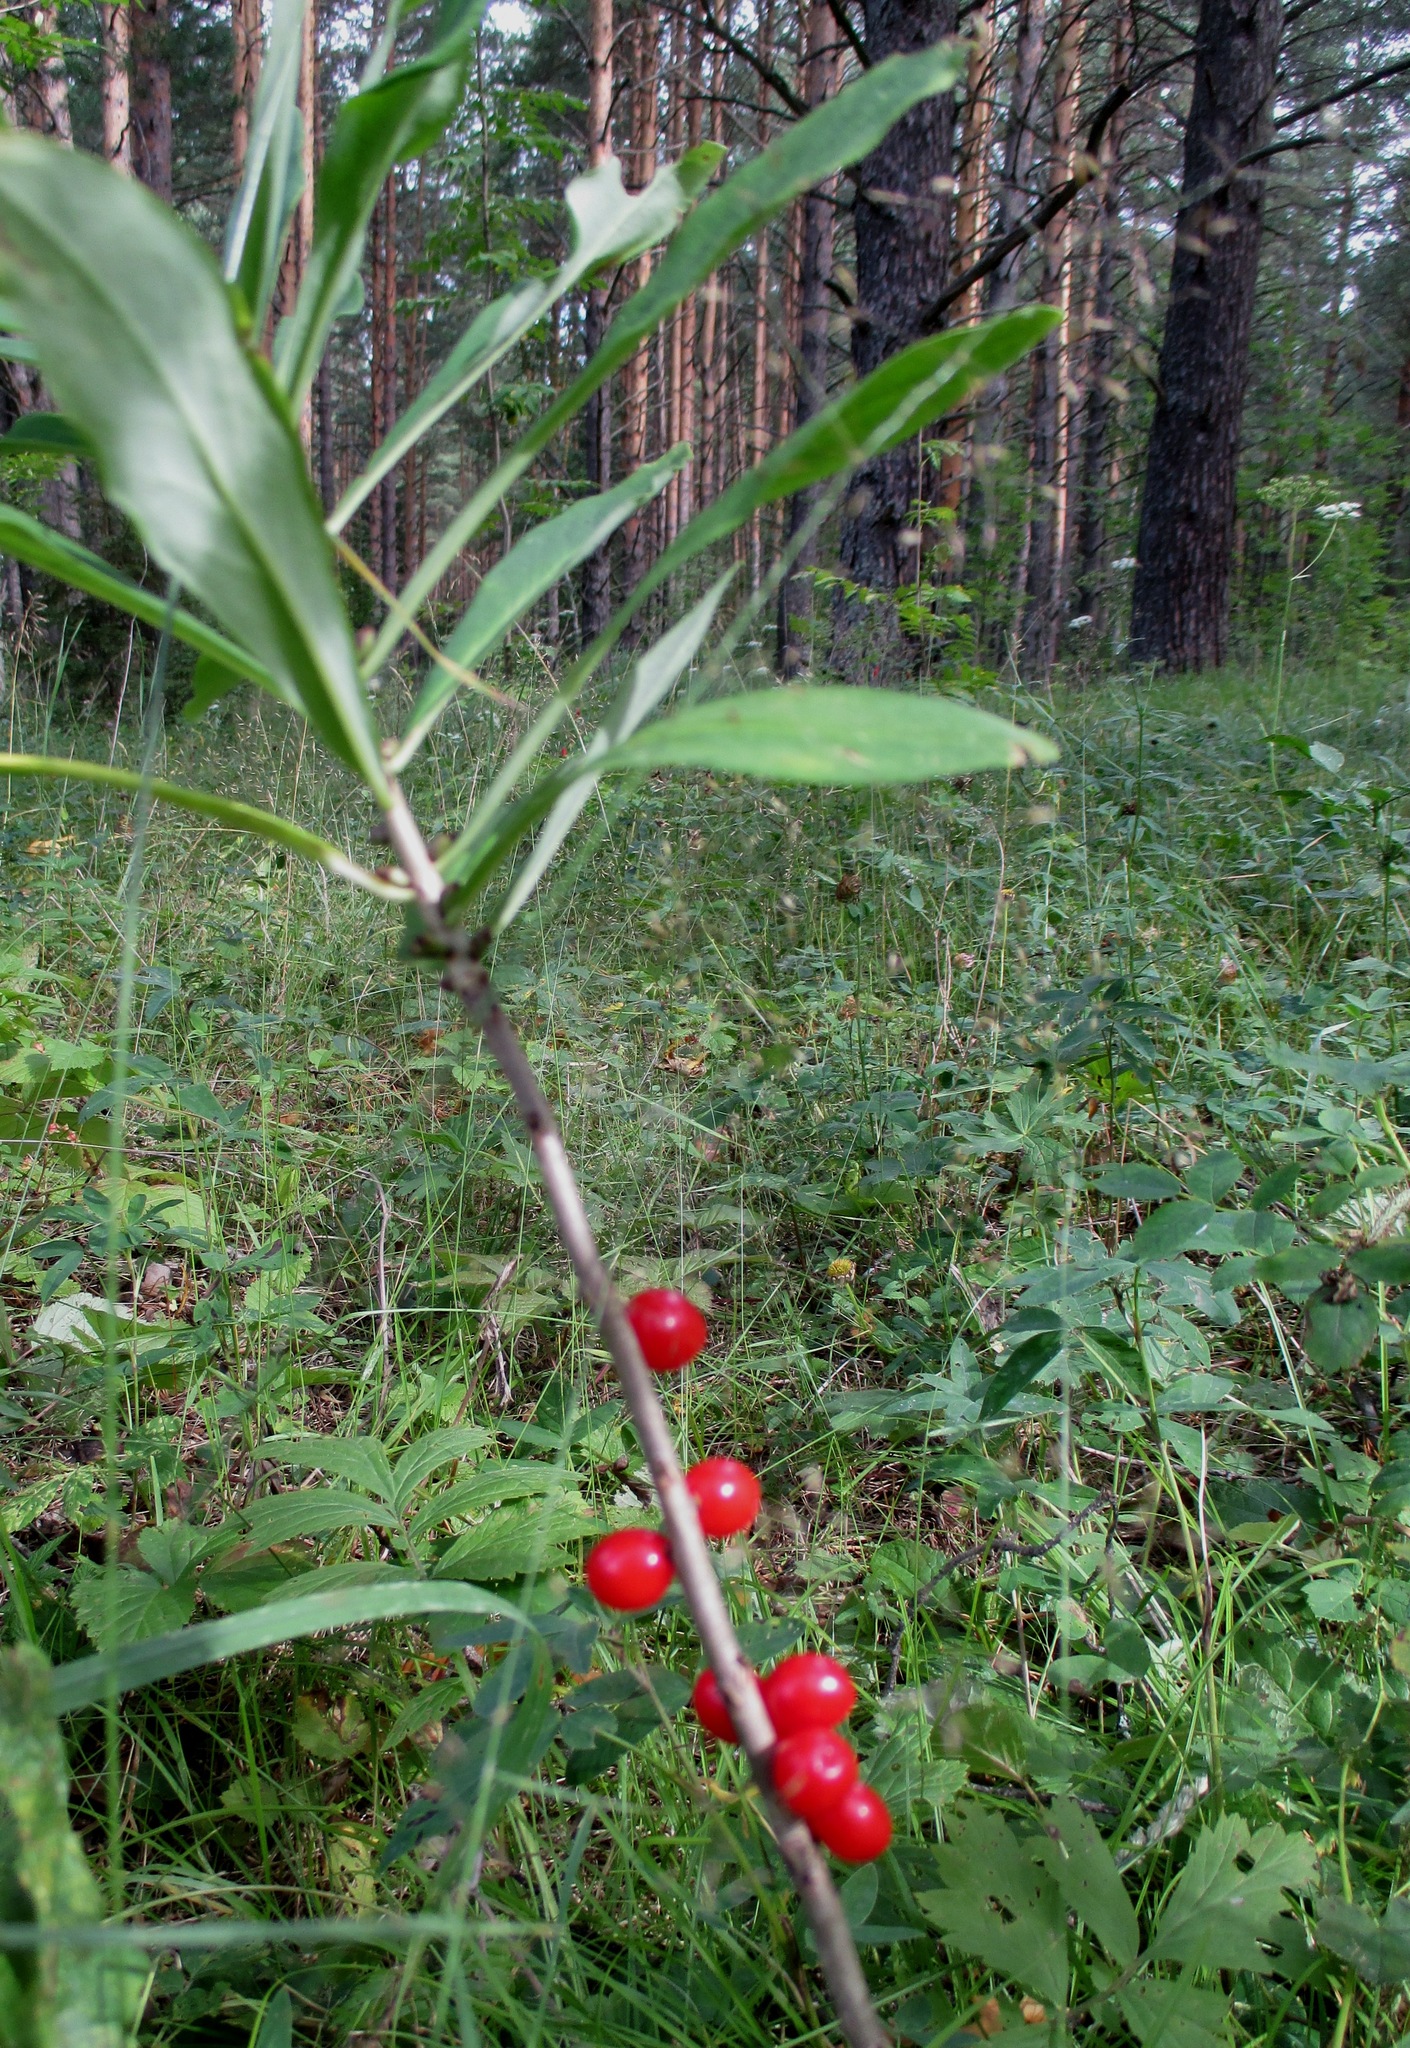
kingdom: Plantae
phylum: Tracheophyta
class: Magnoliopsida
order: Malvales
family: Thymelaeaceae
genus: Daphne
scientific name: Daphne mezereum
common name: Mezereon
